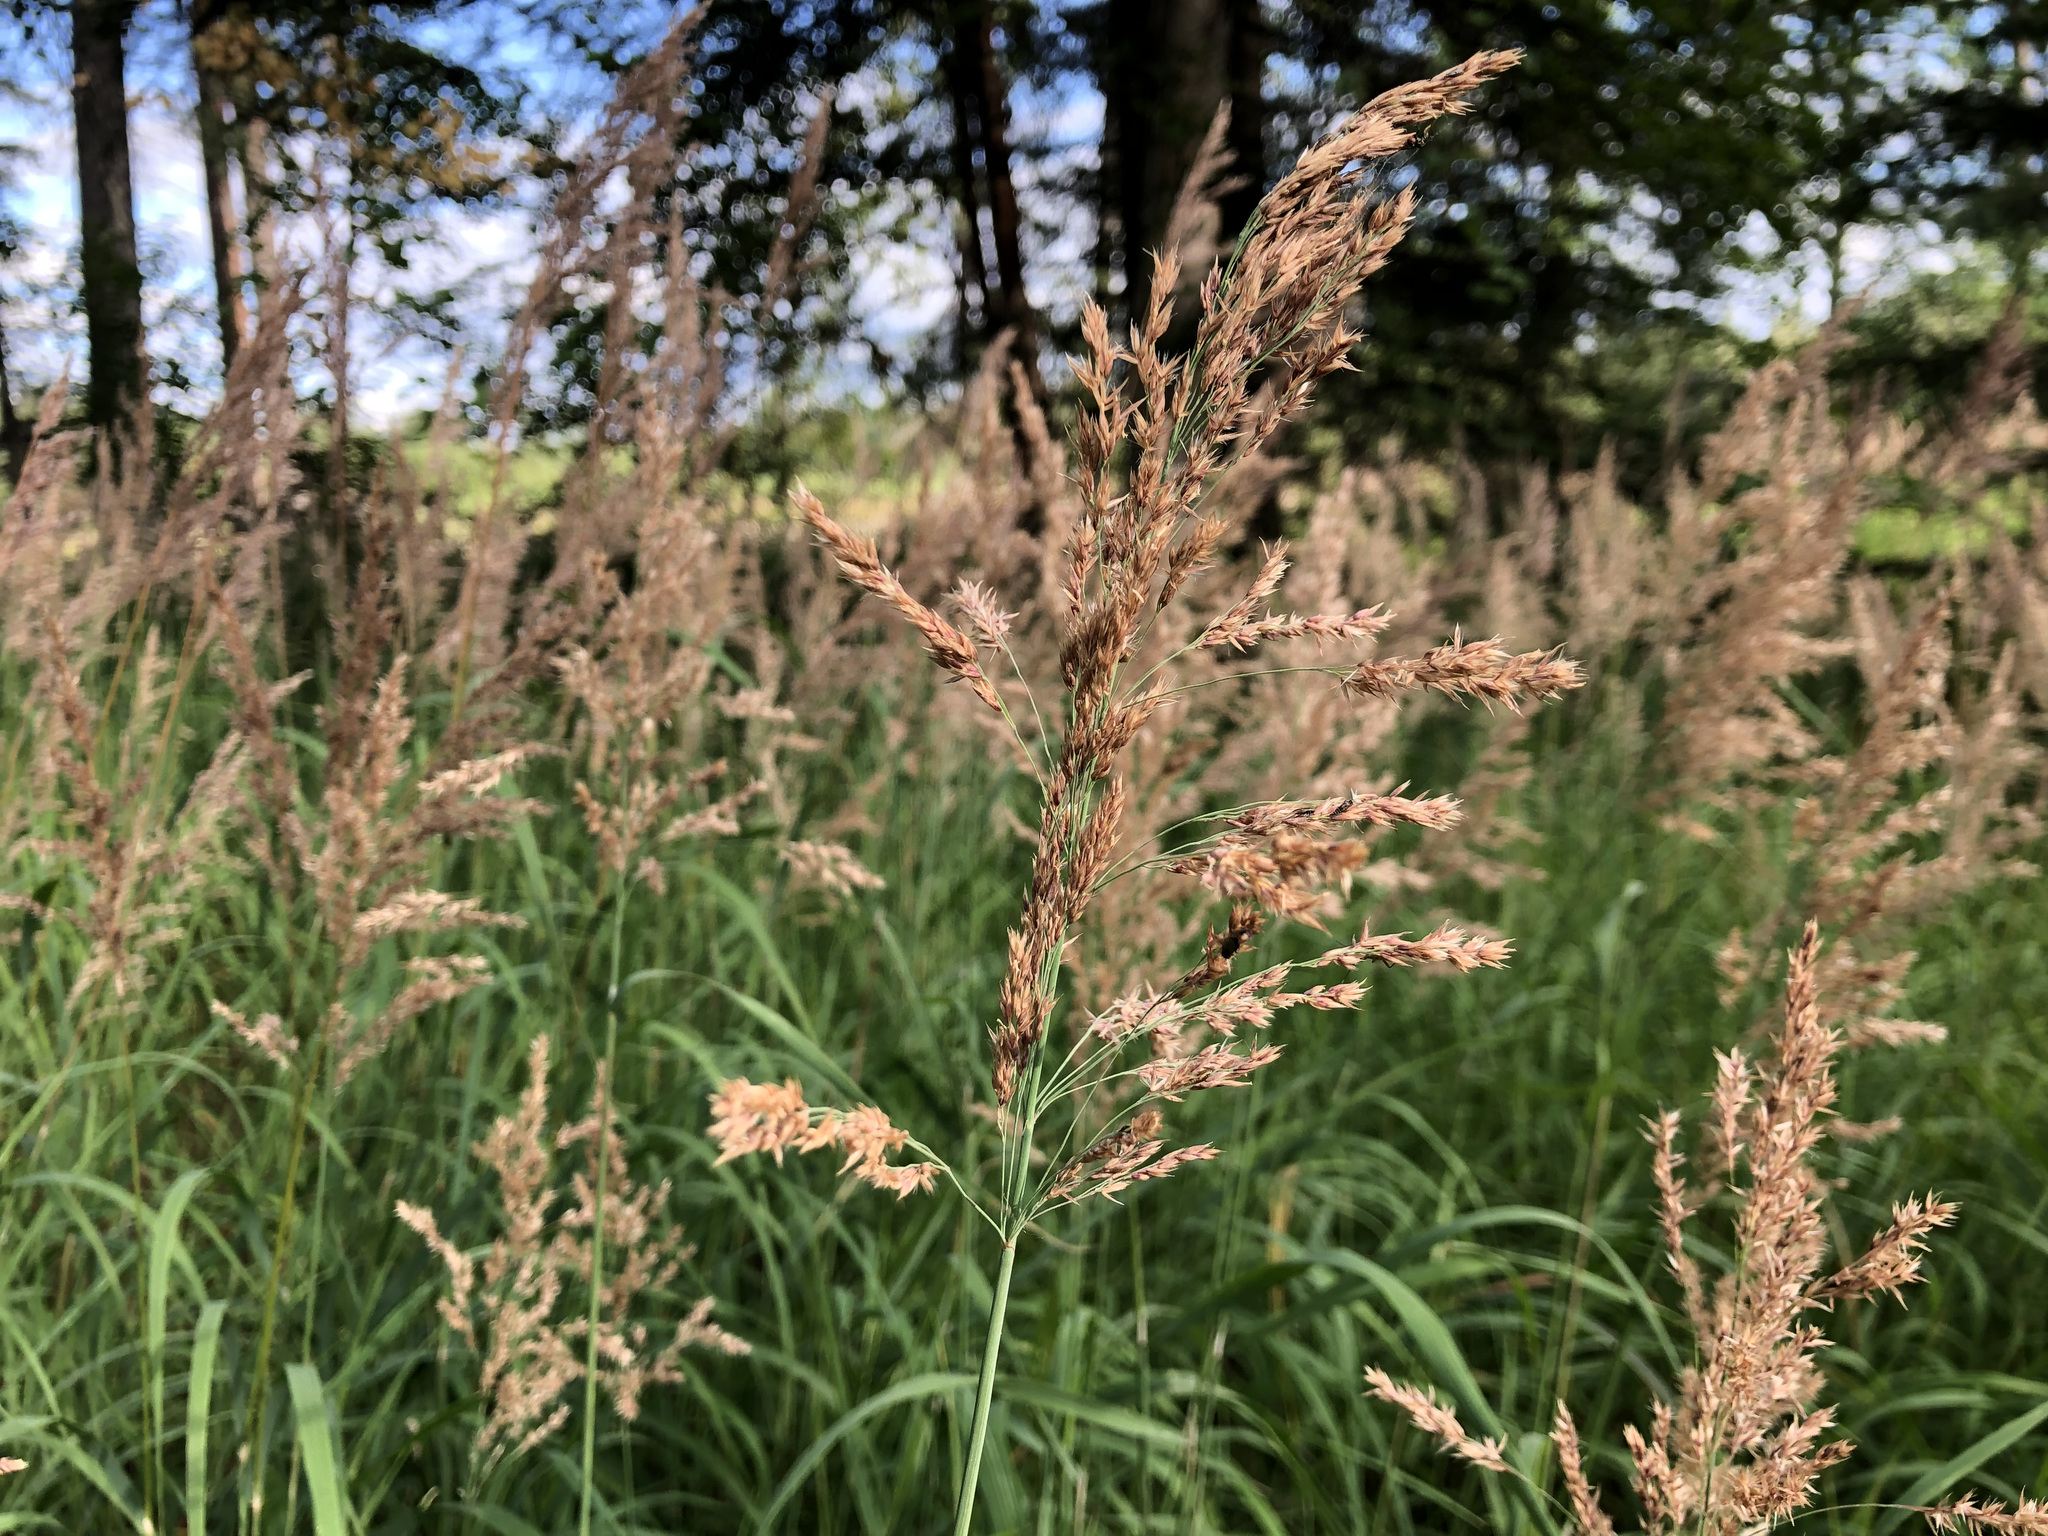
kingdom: Plantae
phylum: Tracheophyta
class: Liliopsida
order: Poales
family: Poaceae
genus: Calamagrostis
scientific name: Calamagrostis canadensis
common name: Canada bluejoint
